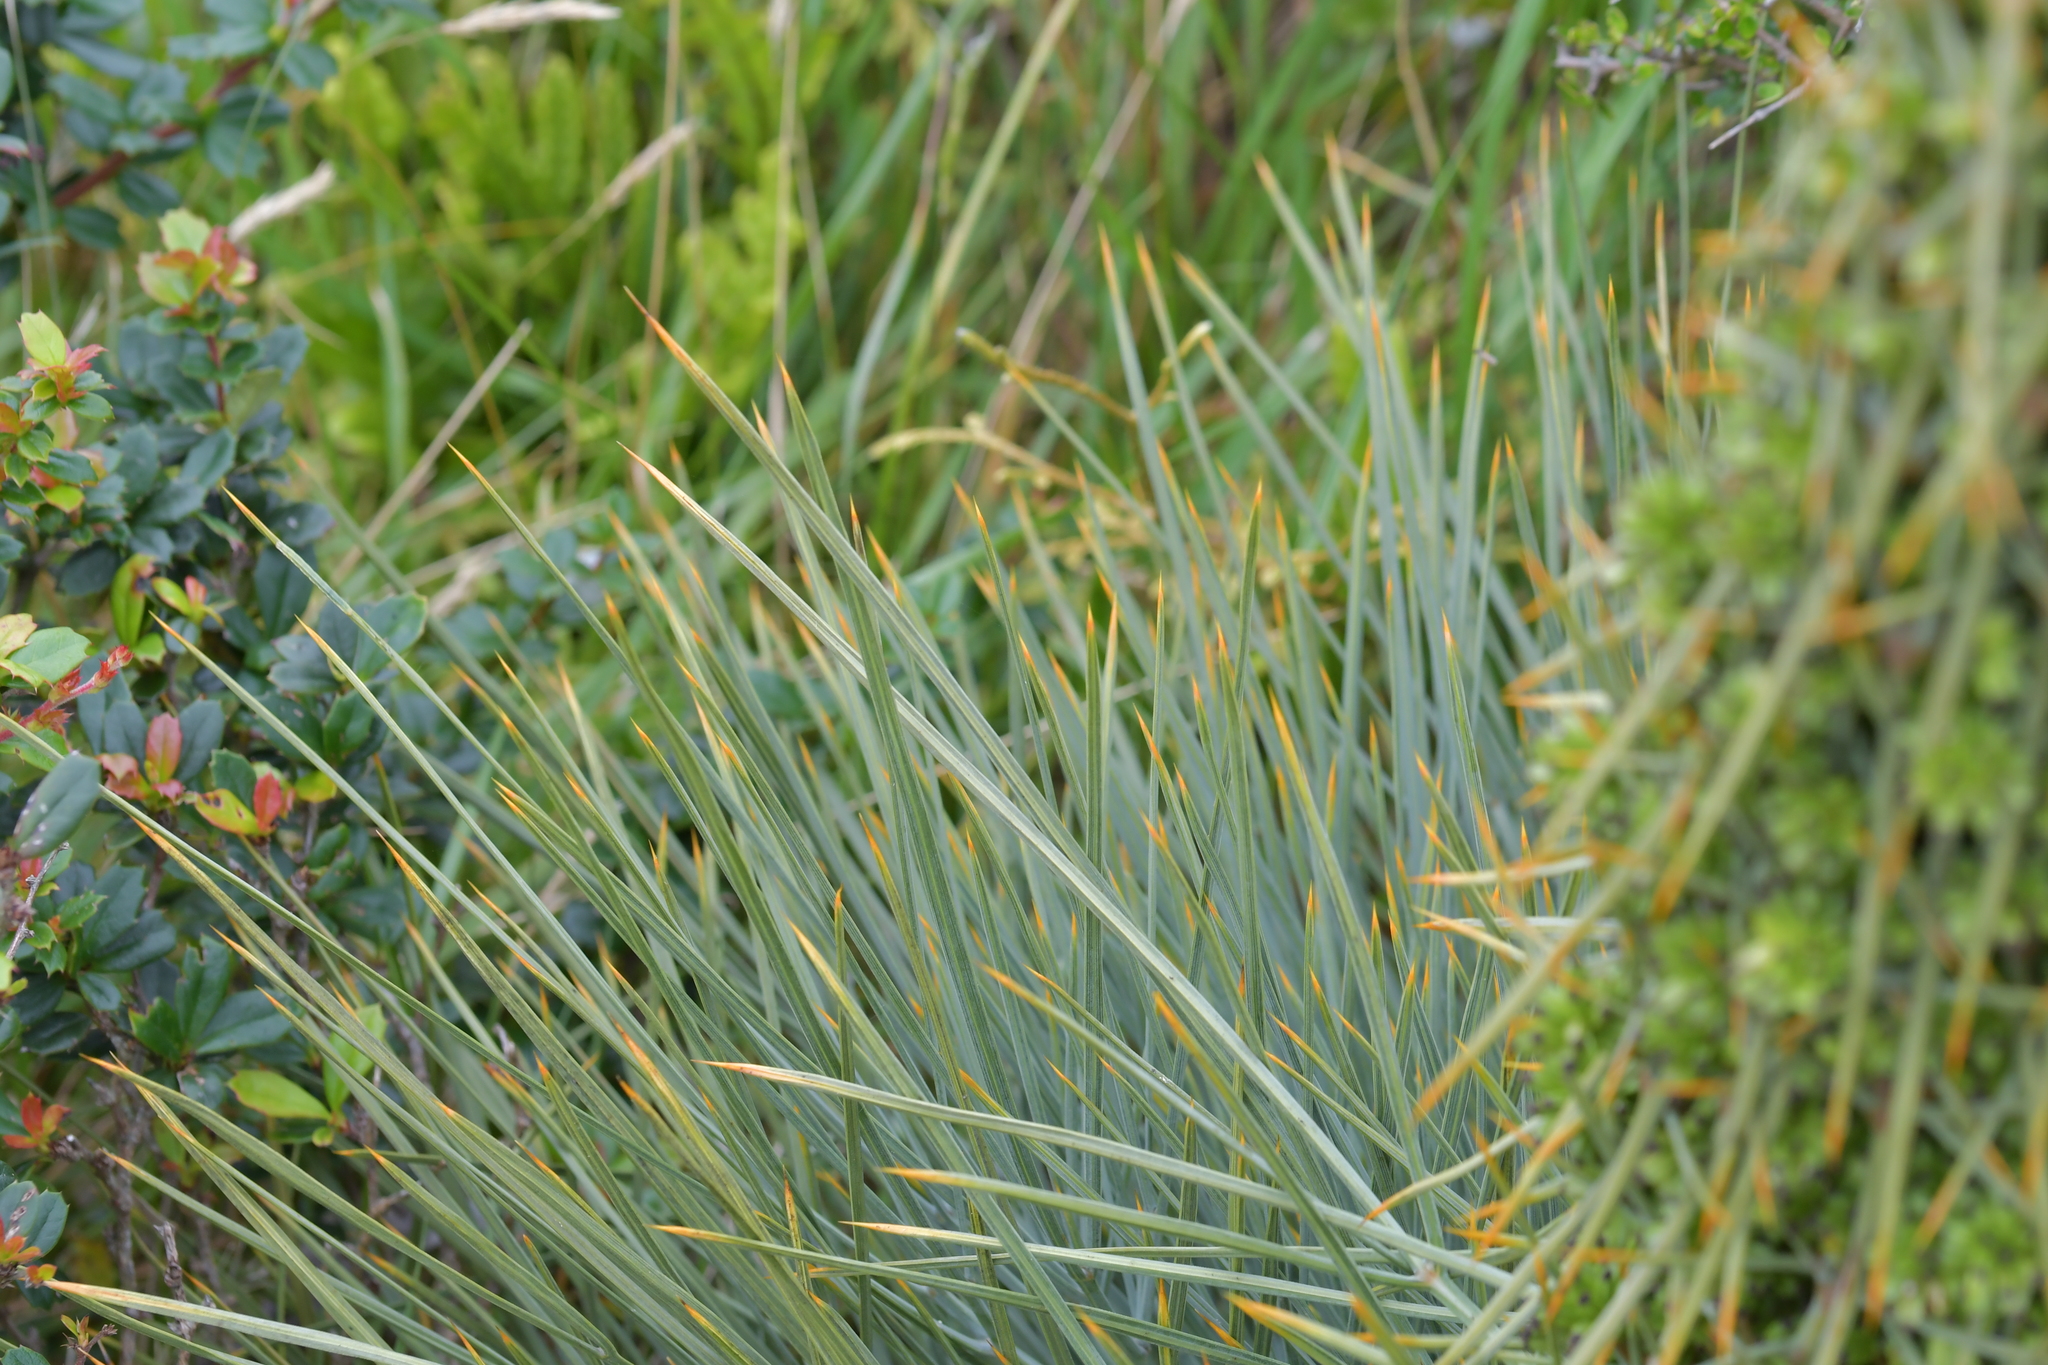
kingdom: Plantae
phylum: Tracheophyta
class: Magnoliopsida
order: Apiales
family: Apiaceae
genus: Aciphylla
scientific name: Aciphylla squarrosa
